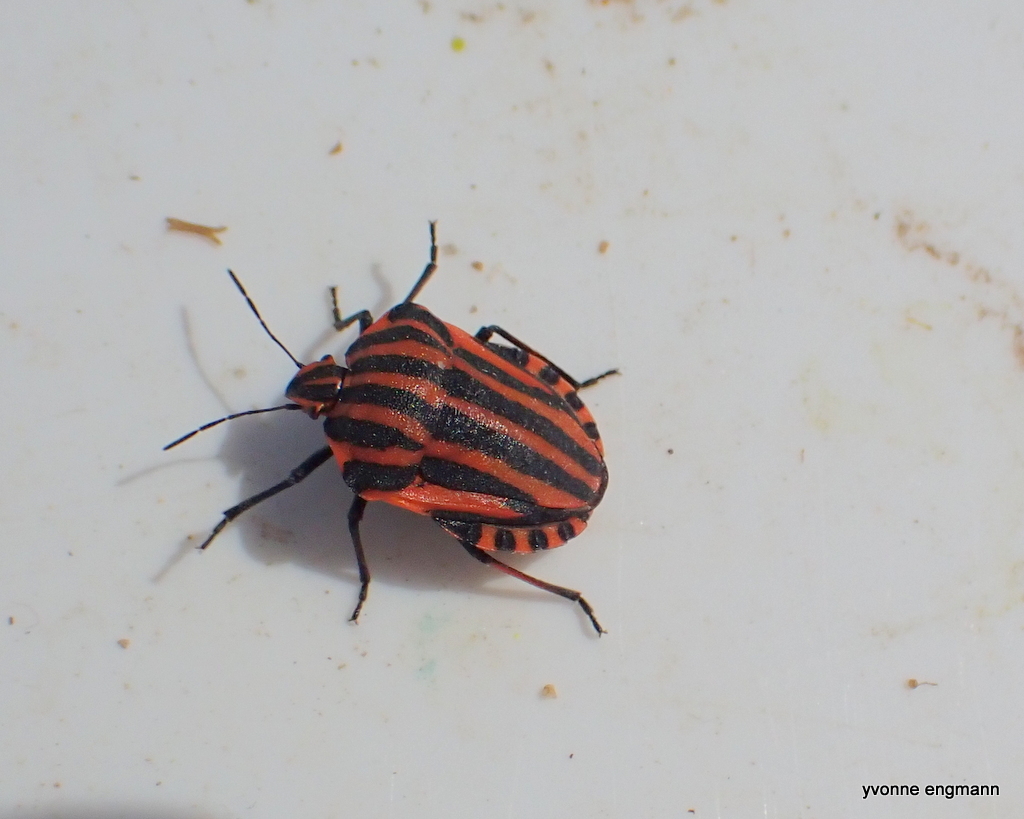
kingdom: Animalia
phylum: Arthropoda
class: Insecta
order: Hemiptera
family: Pentatomidae
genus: Graphosoma
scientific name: Graphosoma italicum
